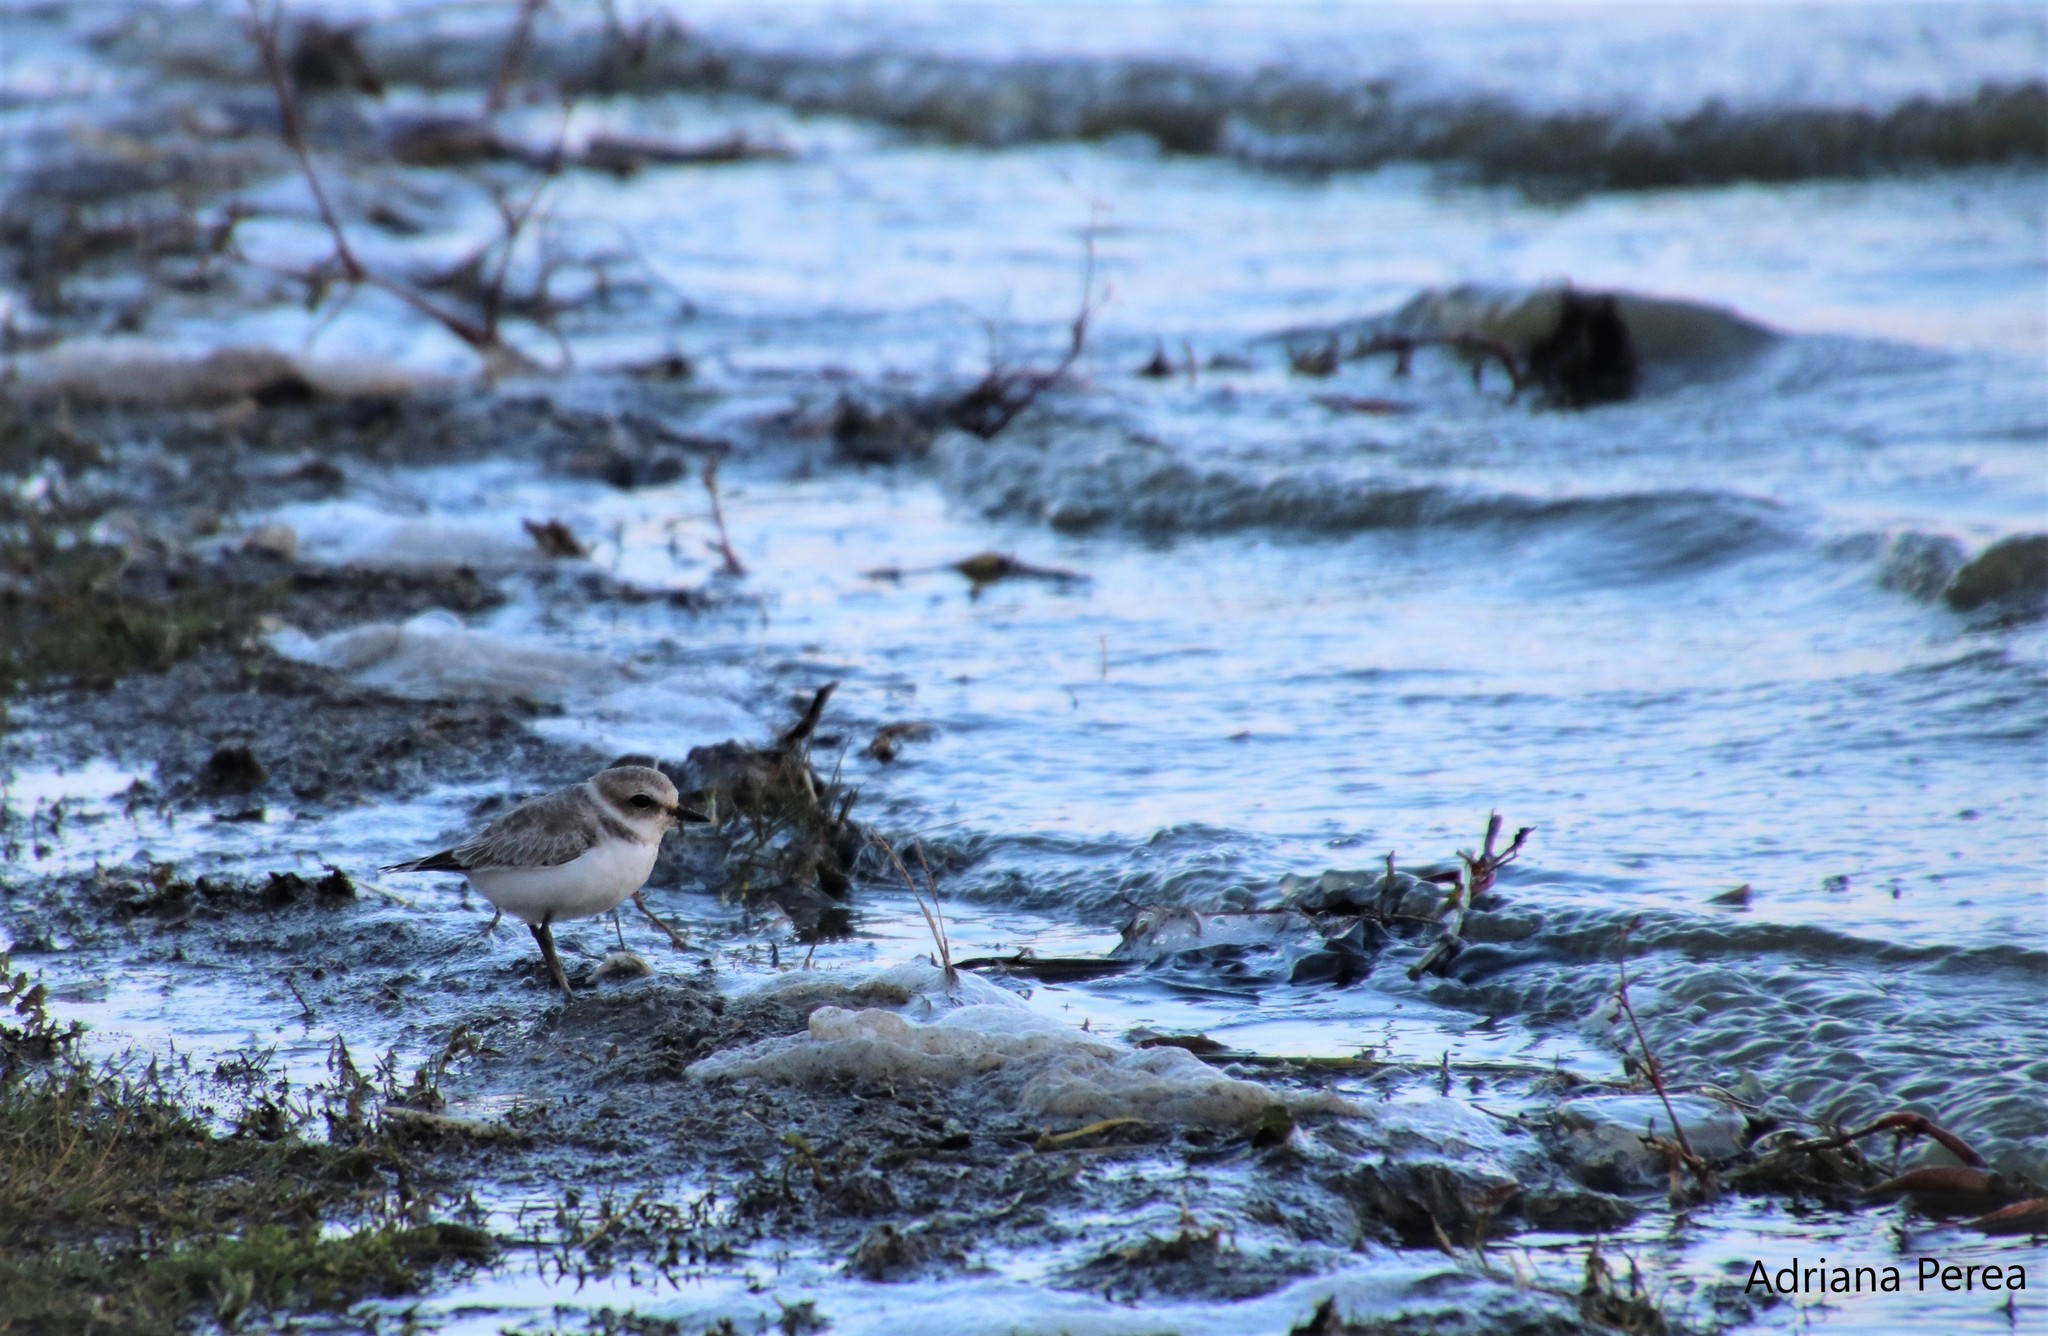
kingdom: Animalia
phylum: Chordata
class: Aves
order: Charadriiformes
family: Charadriidae
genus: Anarhynchus
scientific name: Anarhynchus
